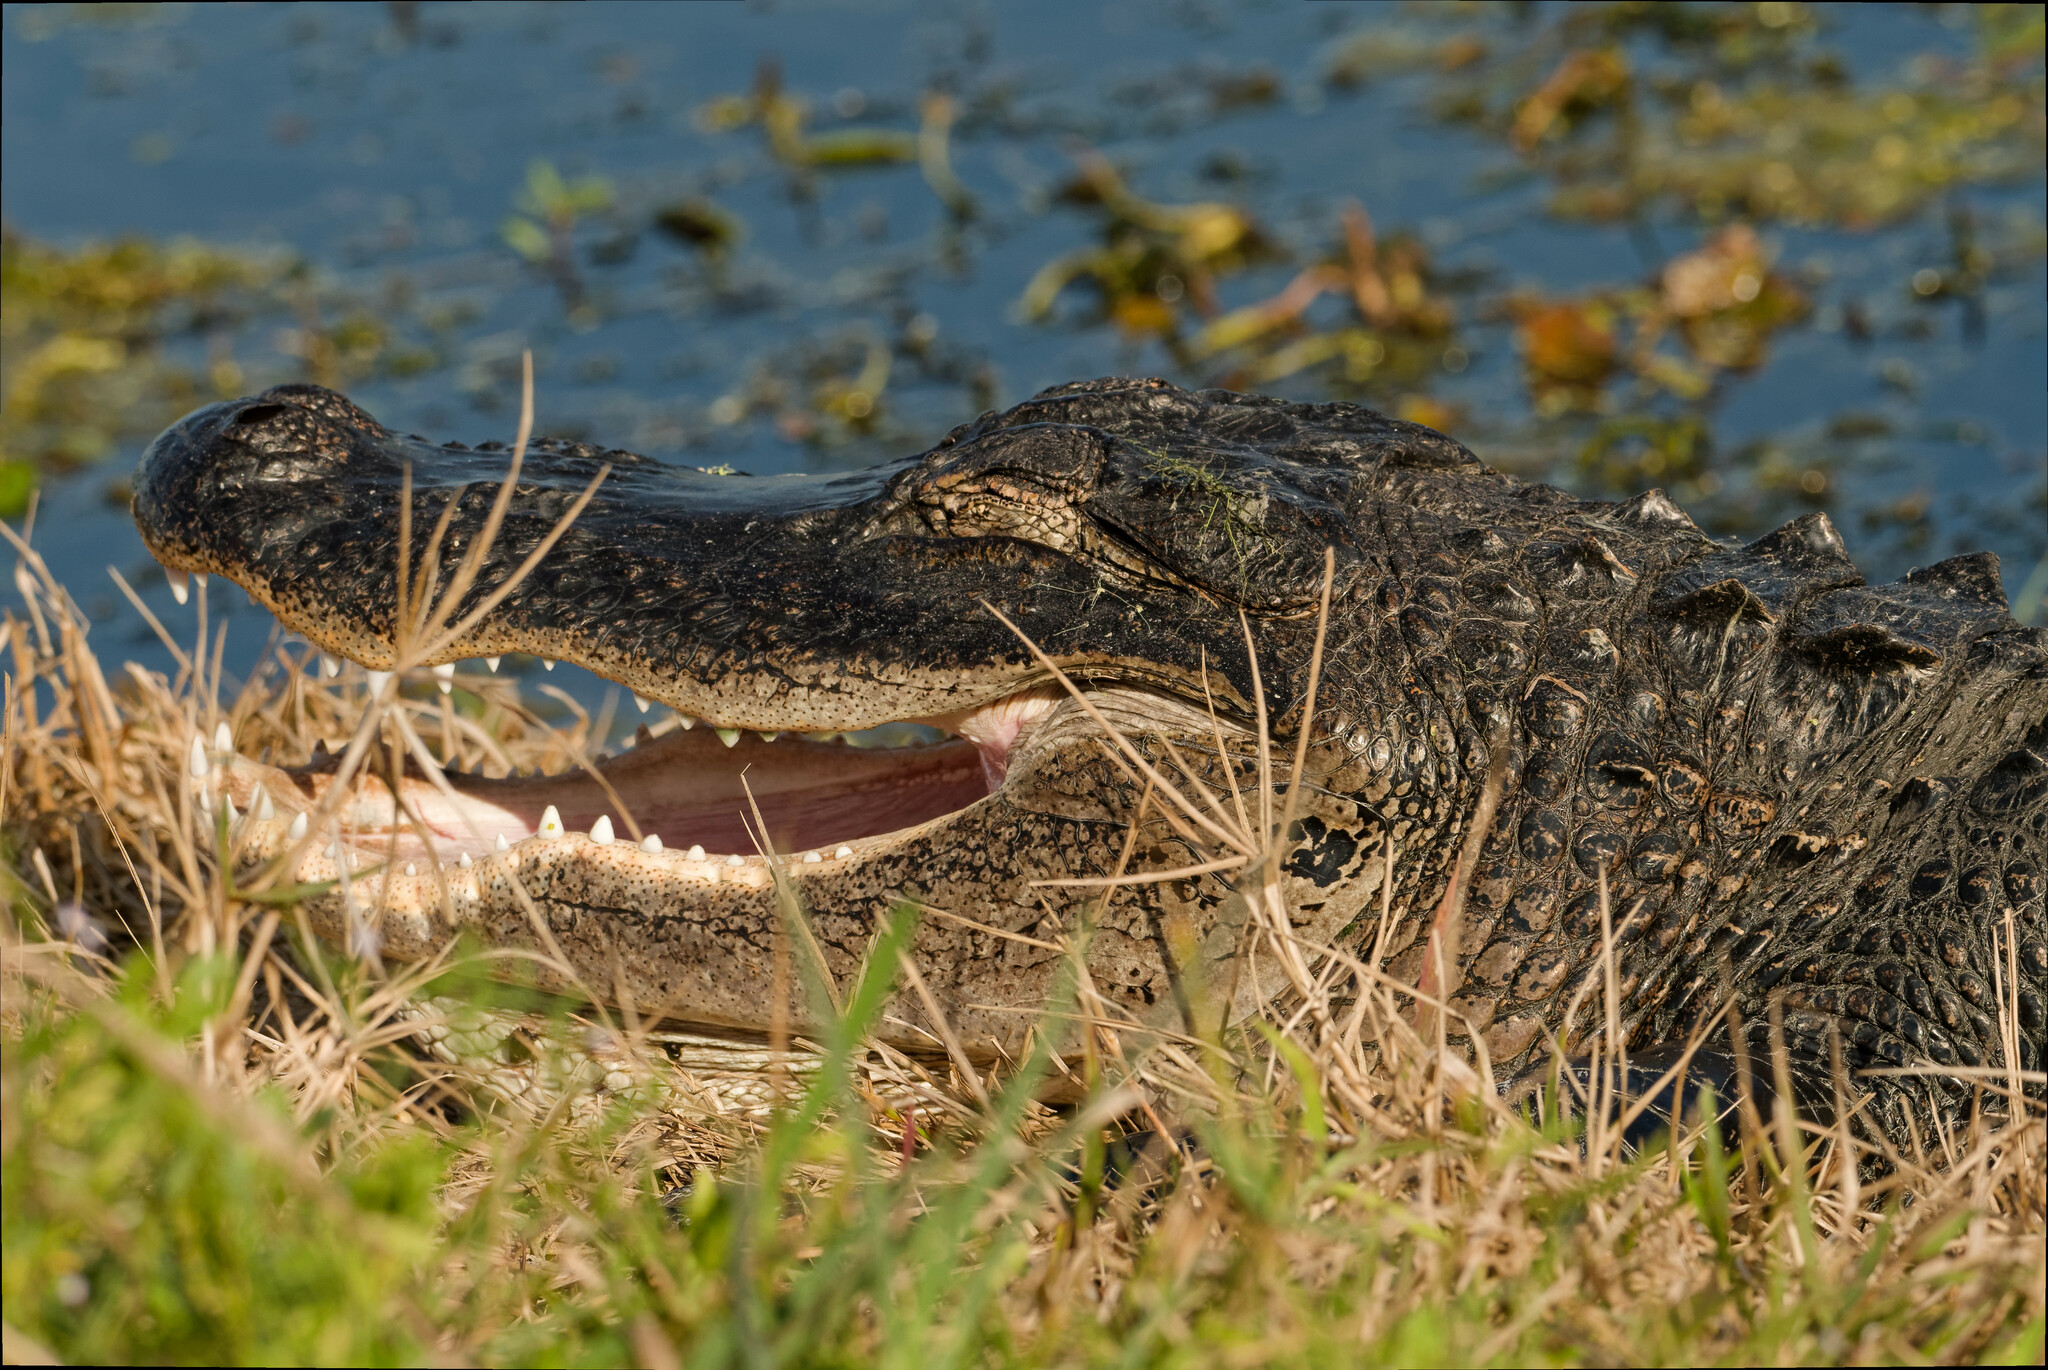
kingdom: Animalia
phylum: Chordata
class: Crocodylia
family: Alligatoridae
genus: Alligator
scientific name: Alligator mississippiensis
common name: American alligator
